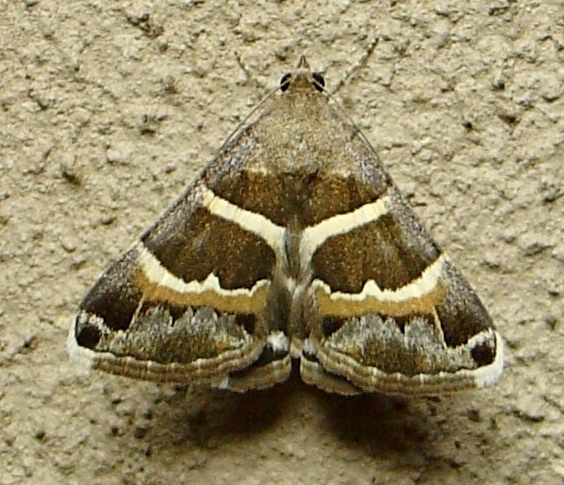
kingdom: Animalia
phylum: Arthropoda
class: Insecta
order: Lepidoptera
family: Erebidae
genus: Grammodes
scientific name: Grammodes stolida
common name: Geometrician
